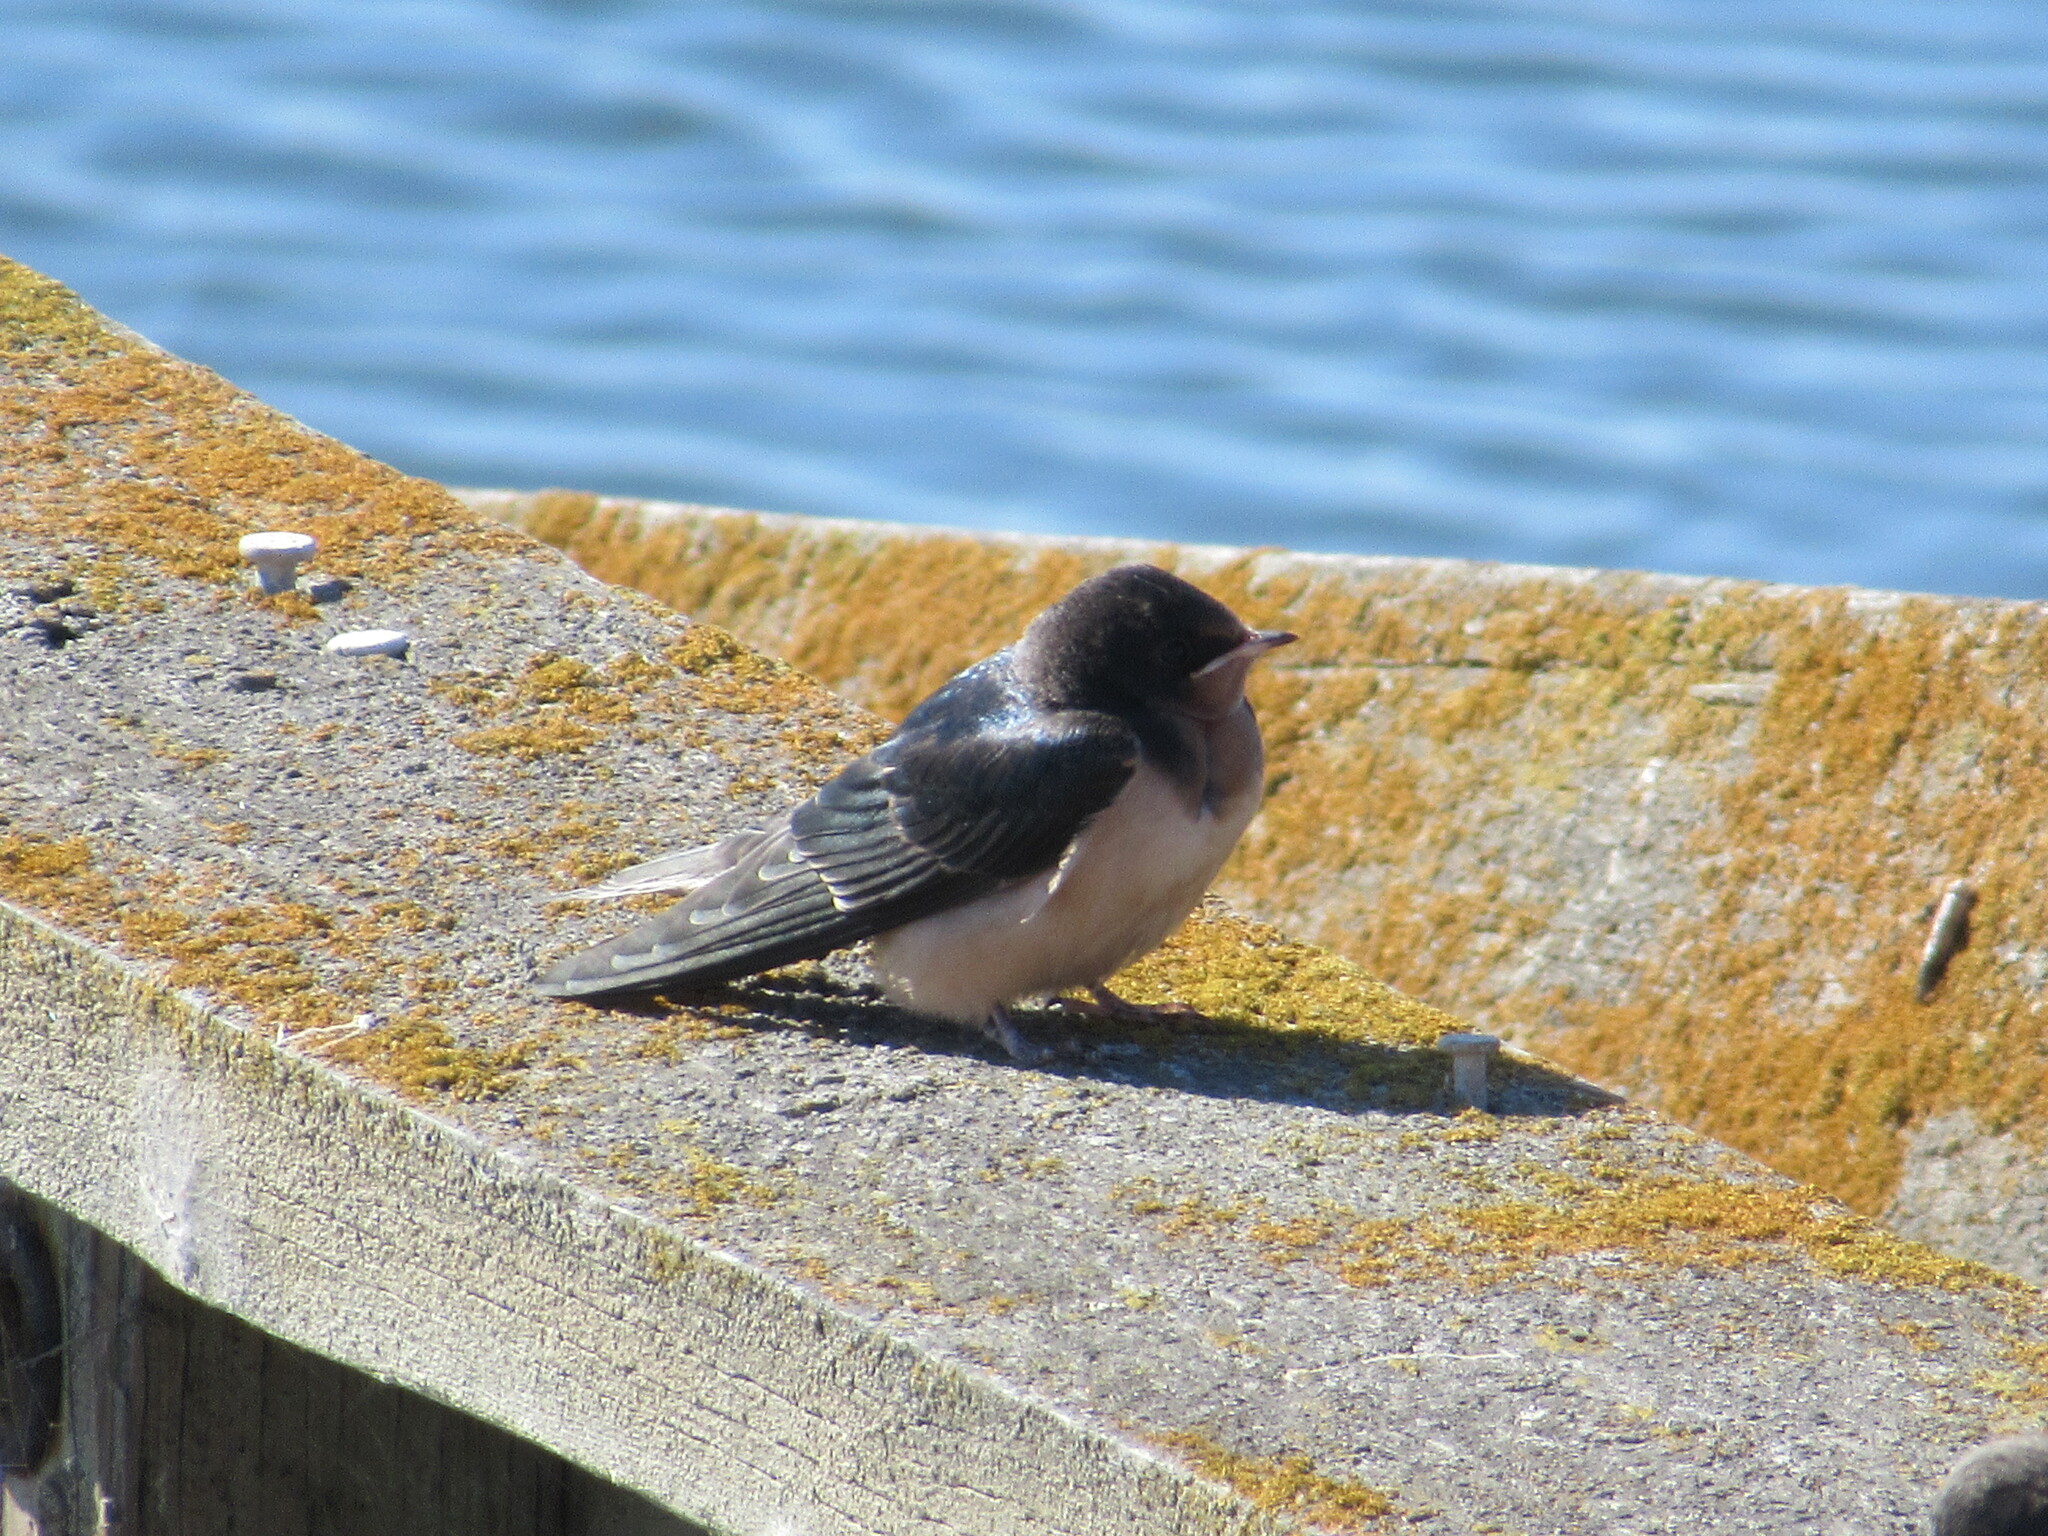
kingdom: Animalia
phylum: Chordata
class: Aves
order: Passeriformes
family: Hirundinidae
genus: Hirundo
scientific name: Hirundo rustica
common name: Barn swallow
